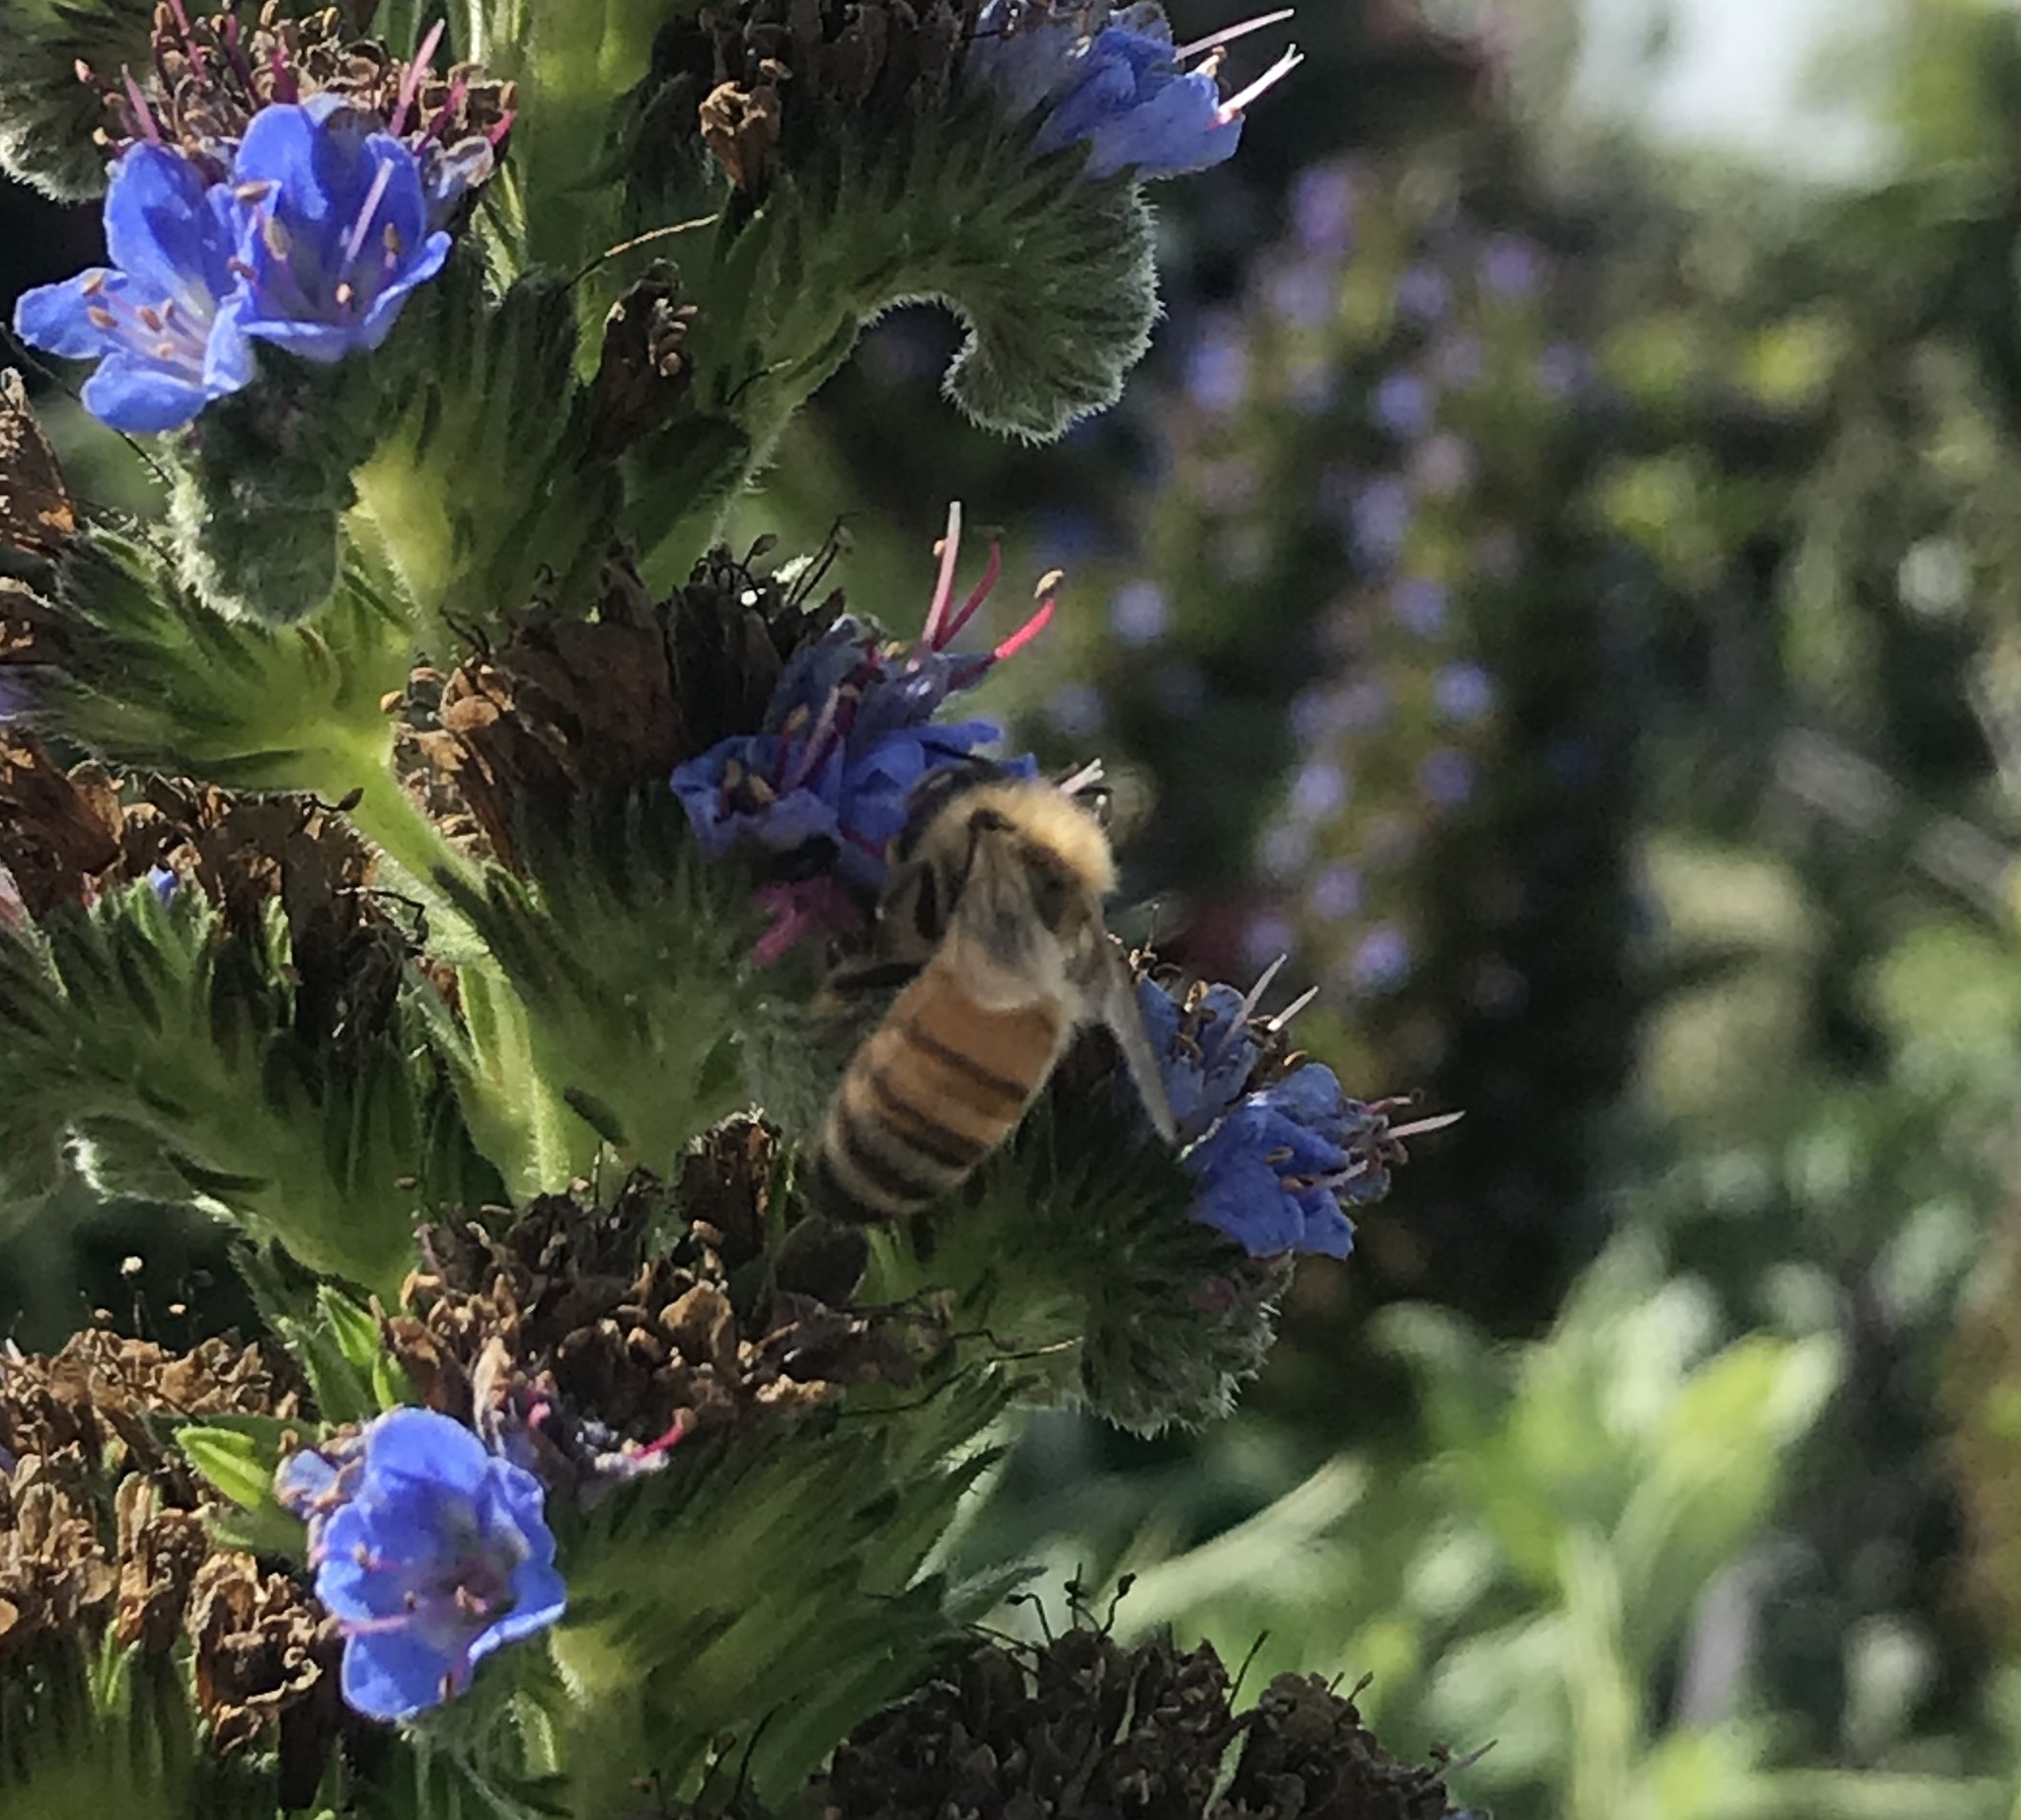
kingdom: Animalia
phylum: Arthropoda
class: Insecta
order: Hymenoptera
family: Apidae
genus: Apis
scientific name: Apis mellifera
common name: Honey bee
